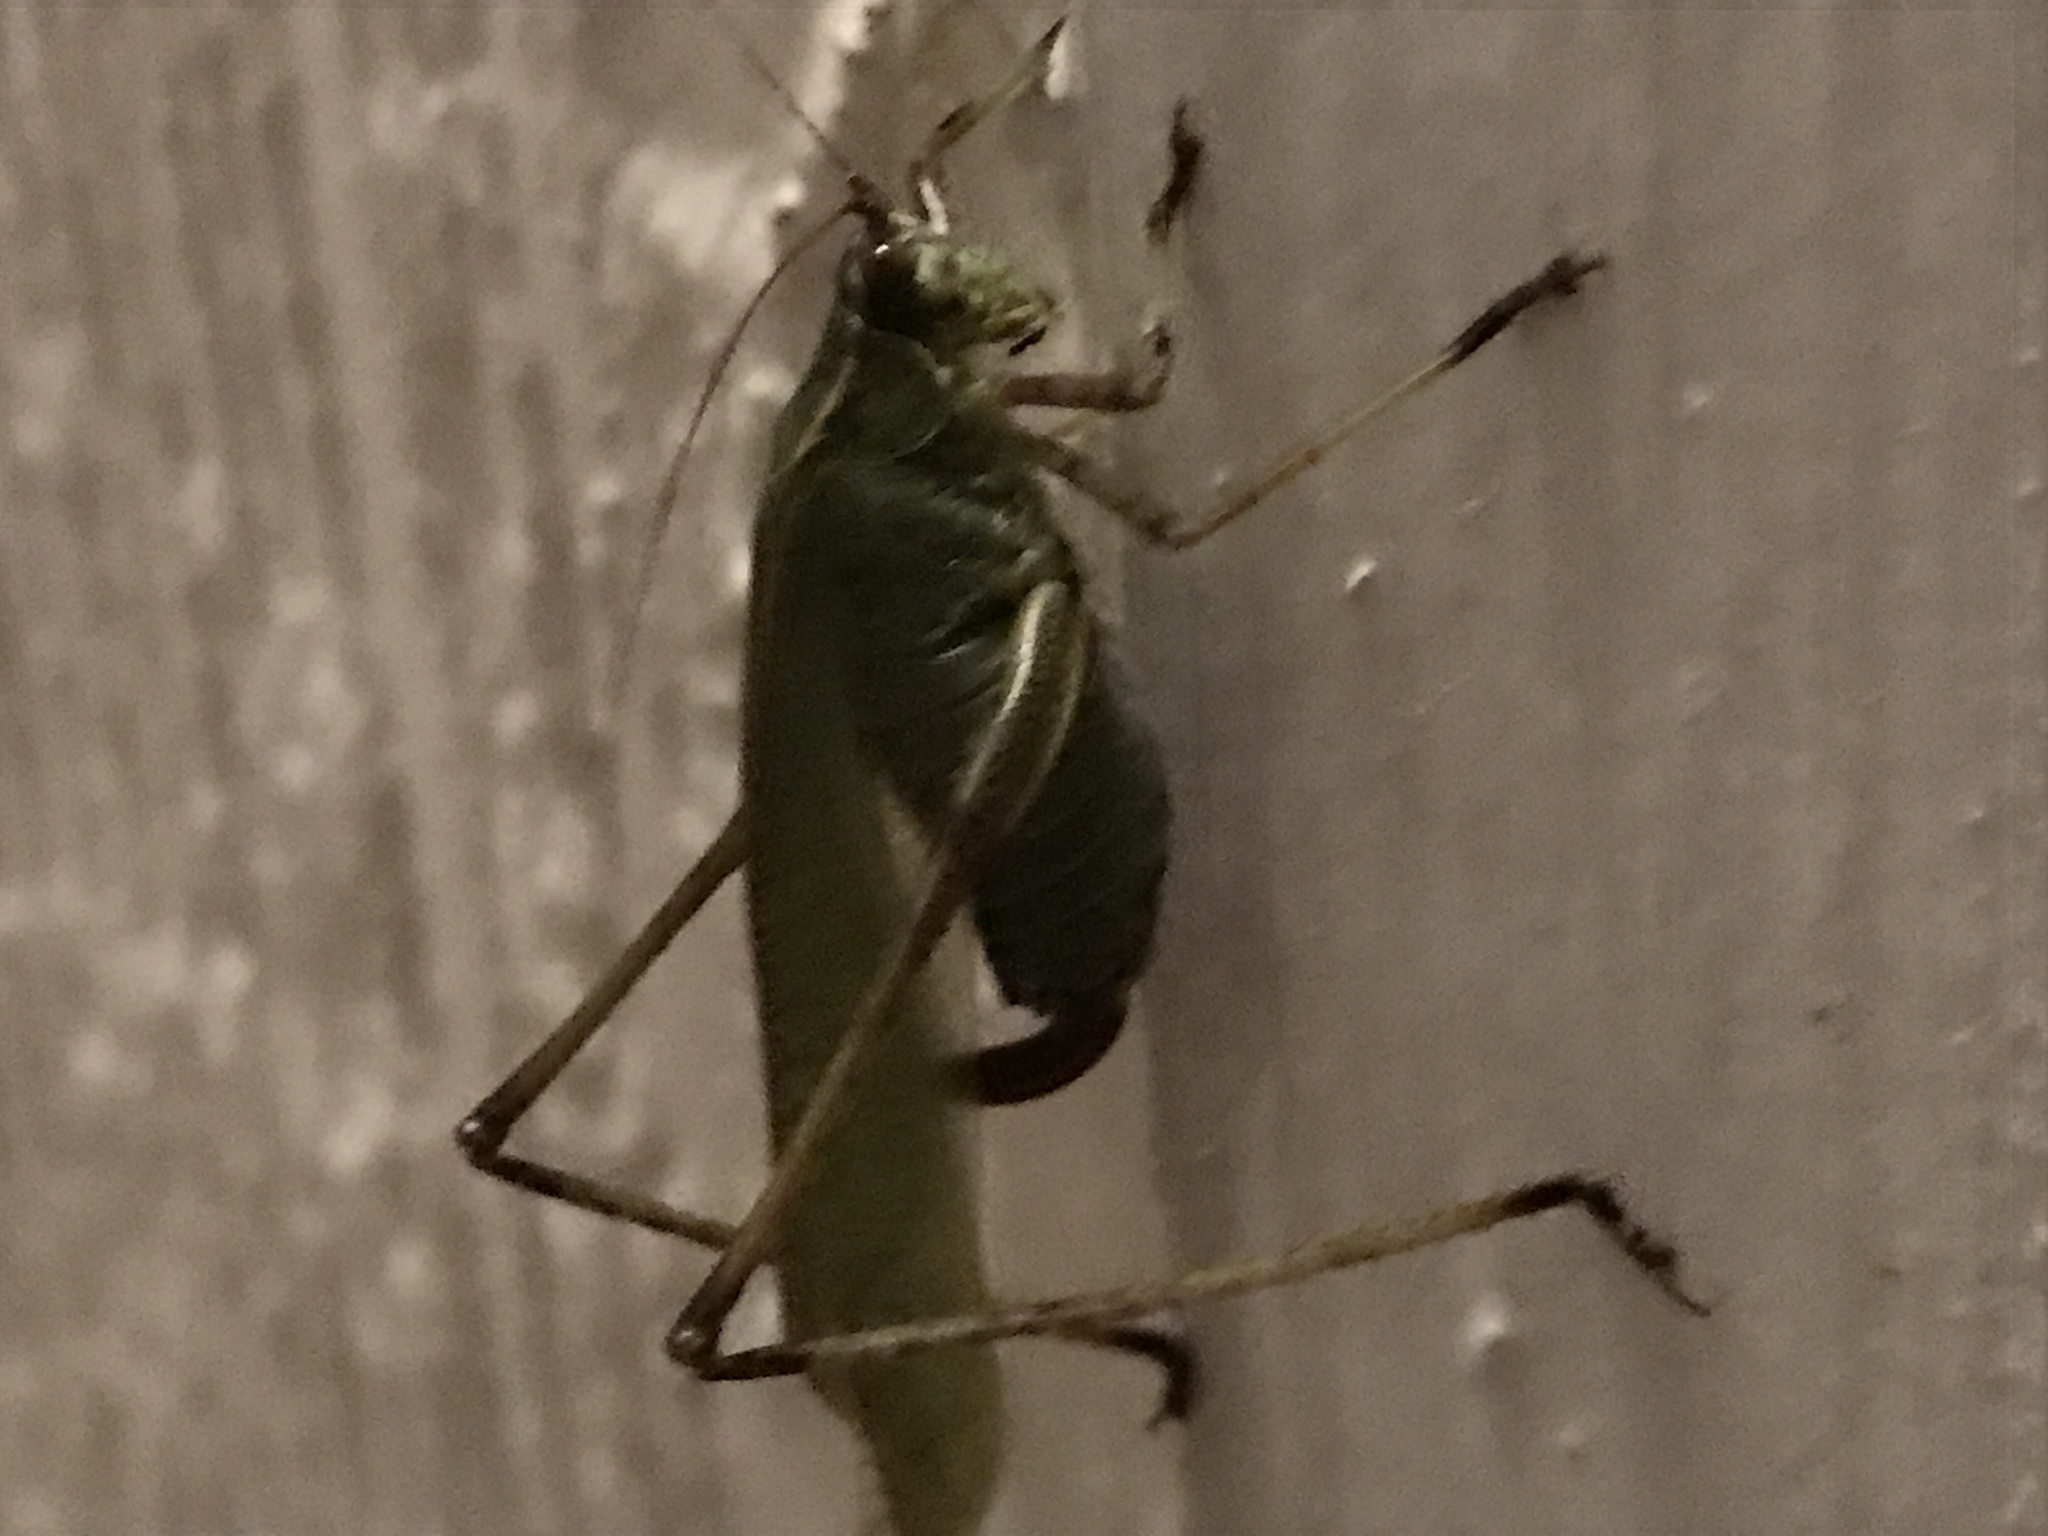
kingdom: Animalia
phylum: Arthropoda
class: Insecta
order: Orthoptera
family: Tettigoniidae
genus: Scudderia
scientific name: Scudderia furcata
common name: Fork-tailed bush katydid
